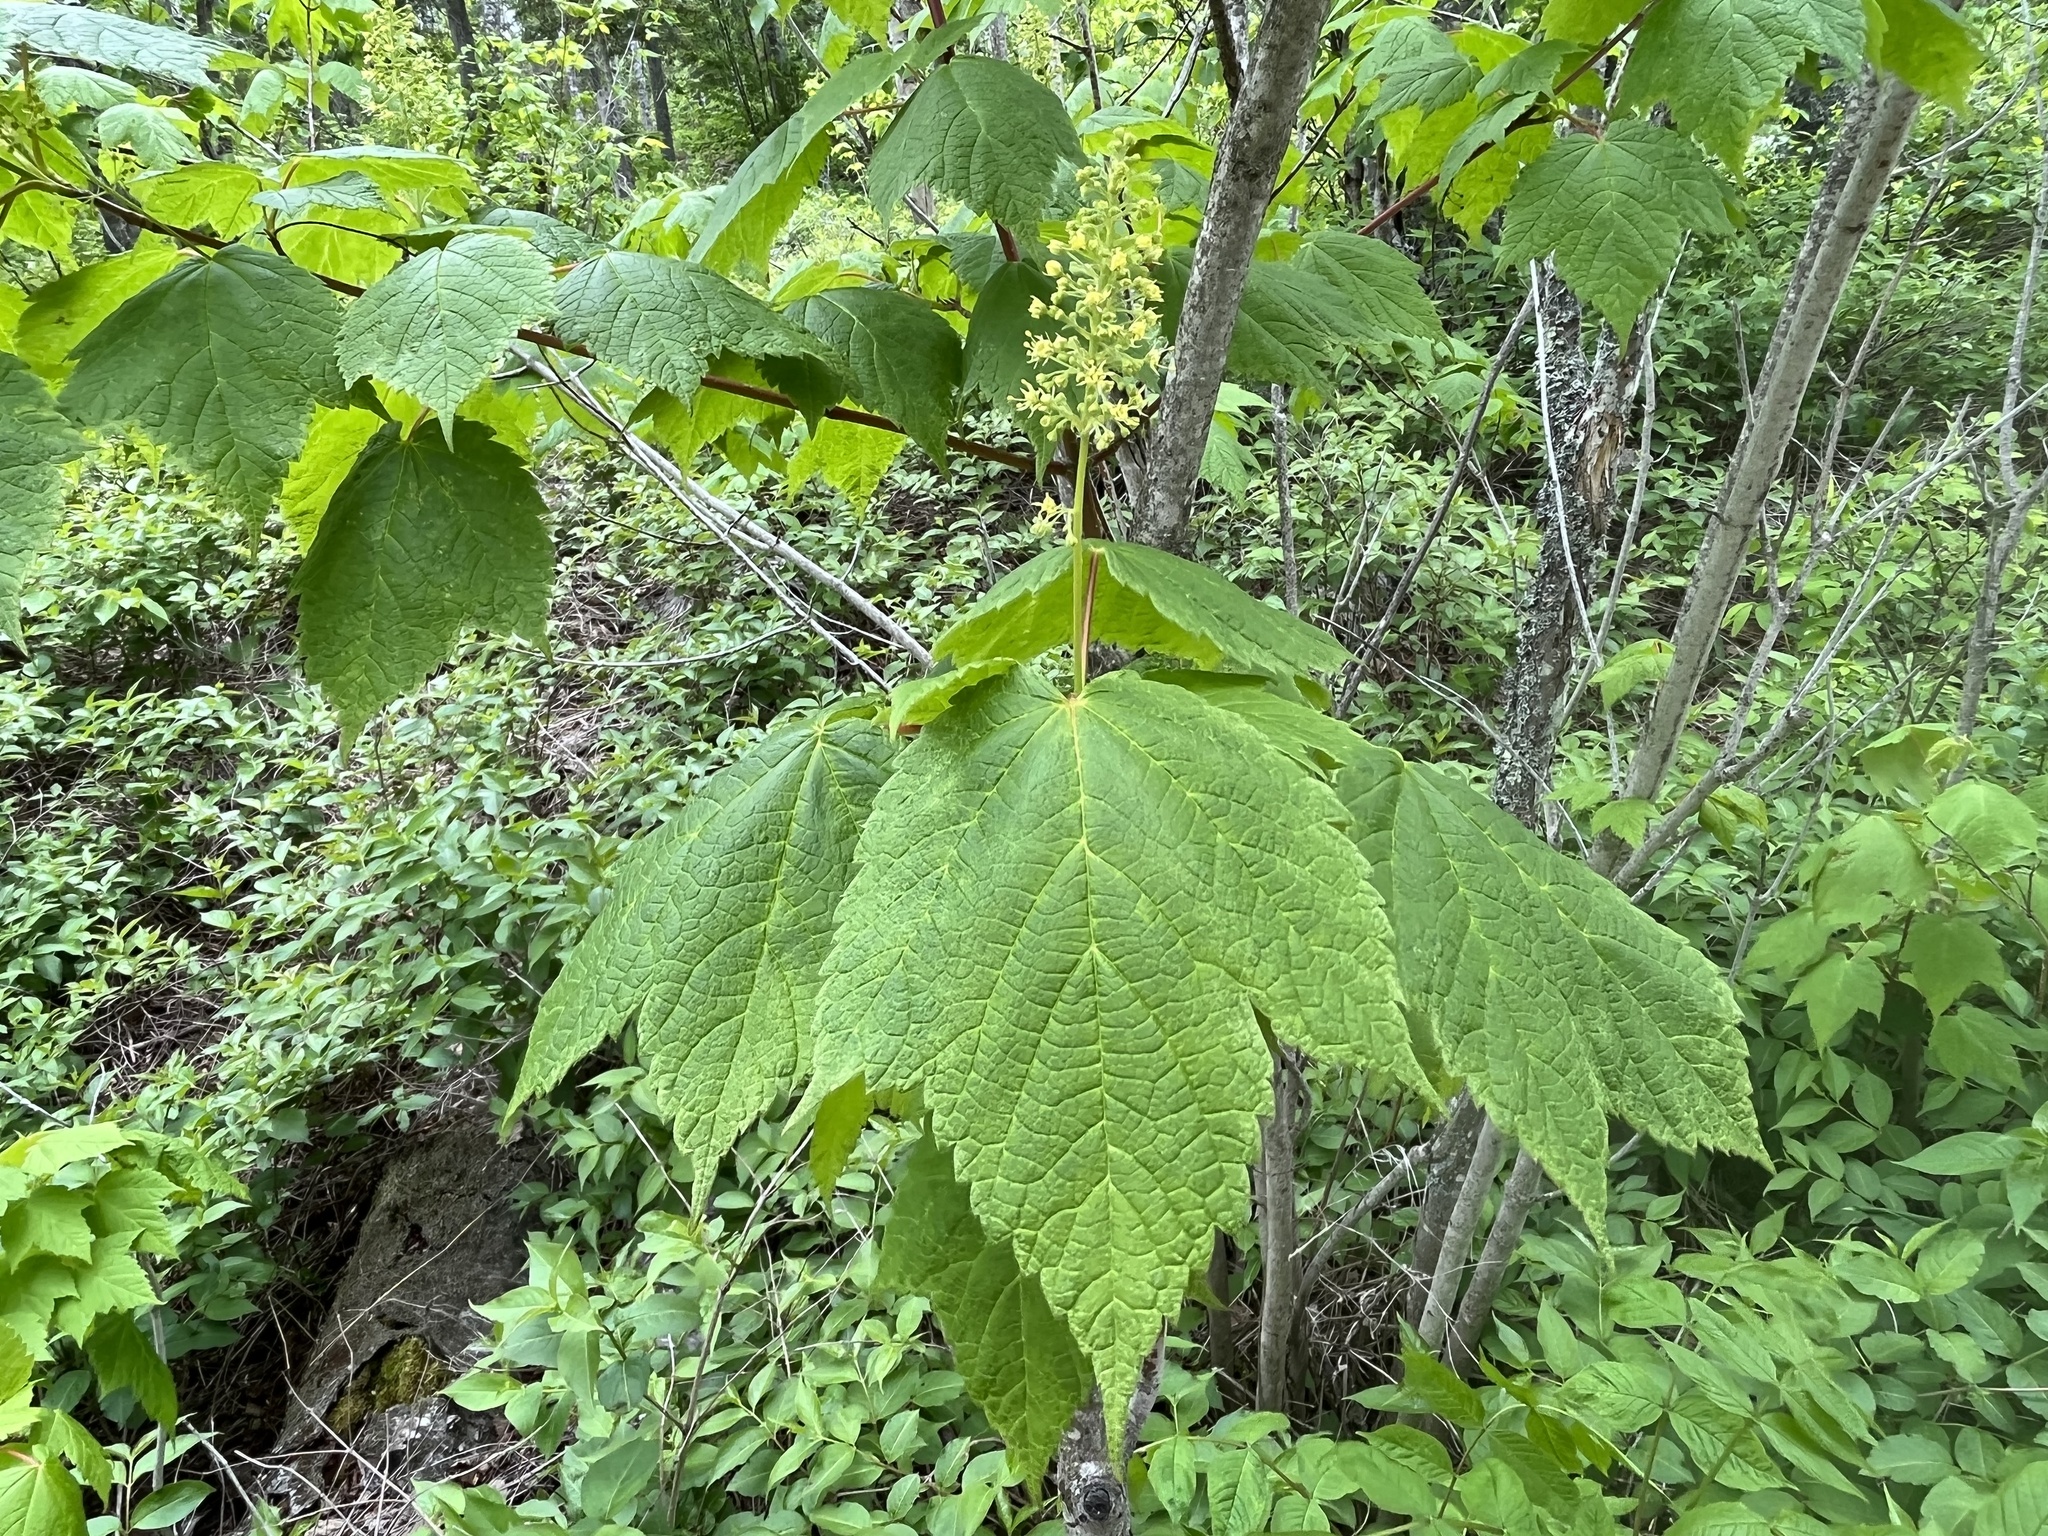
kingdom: Plantae
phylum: Tracheophyta
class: Magnoliopsida
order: Sapindales
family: Sapindaceae
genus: Acer
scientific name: Acer spicatum
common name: Mountain maple
